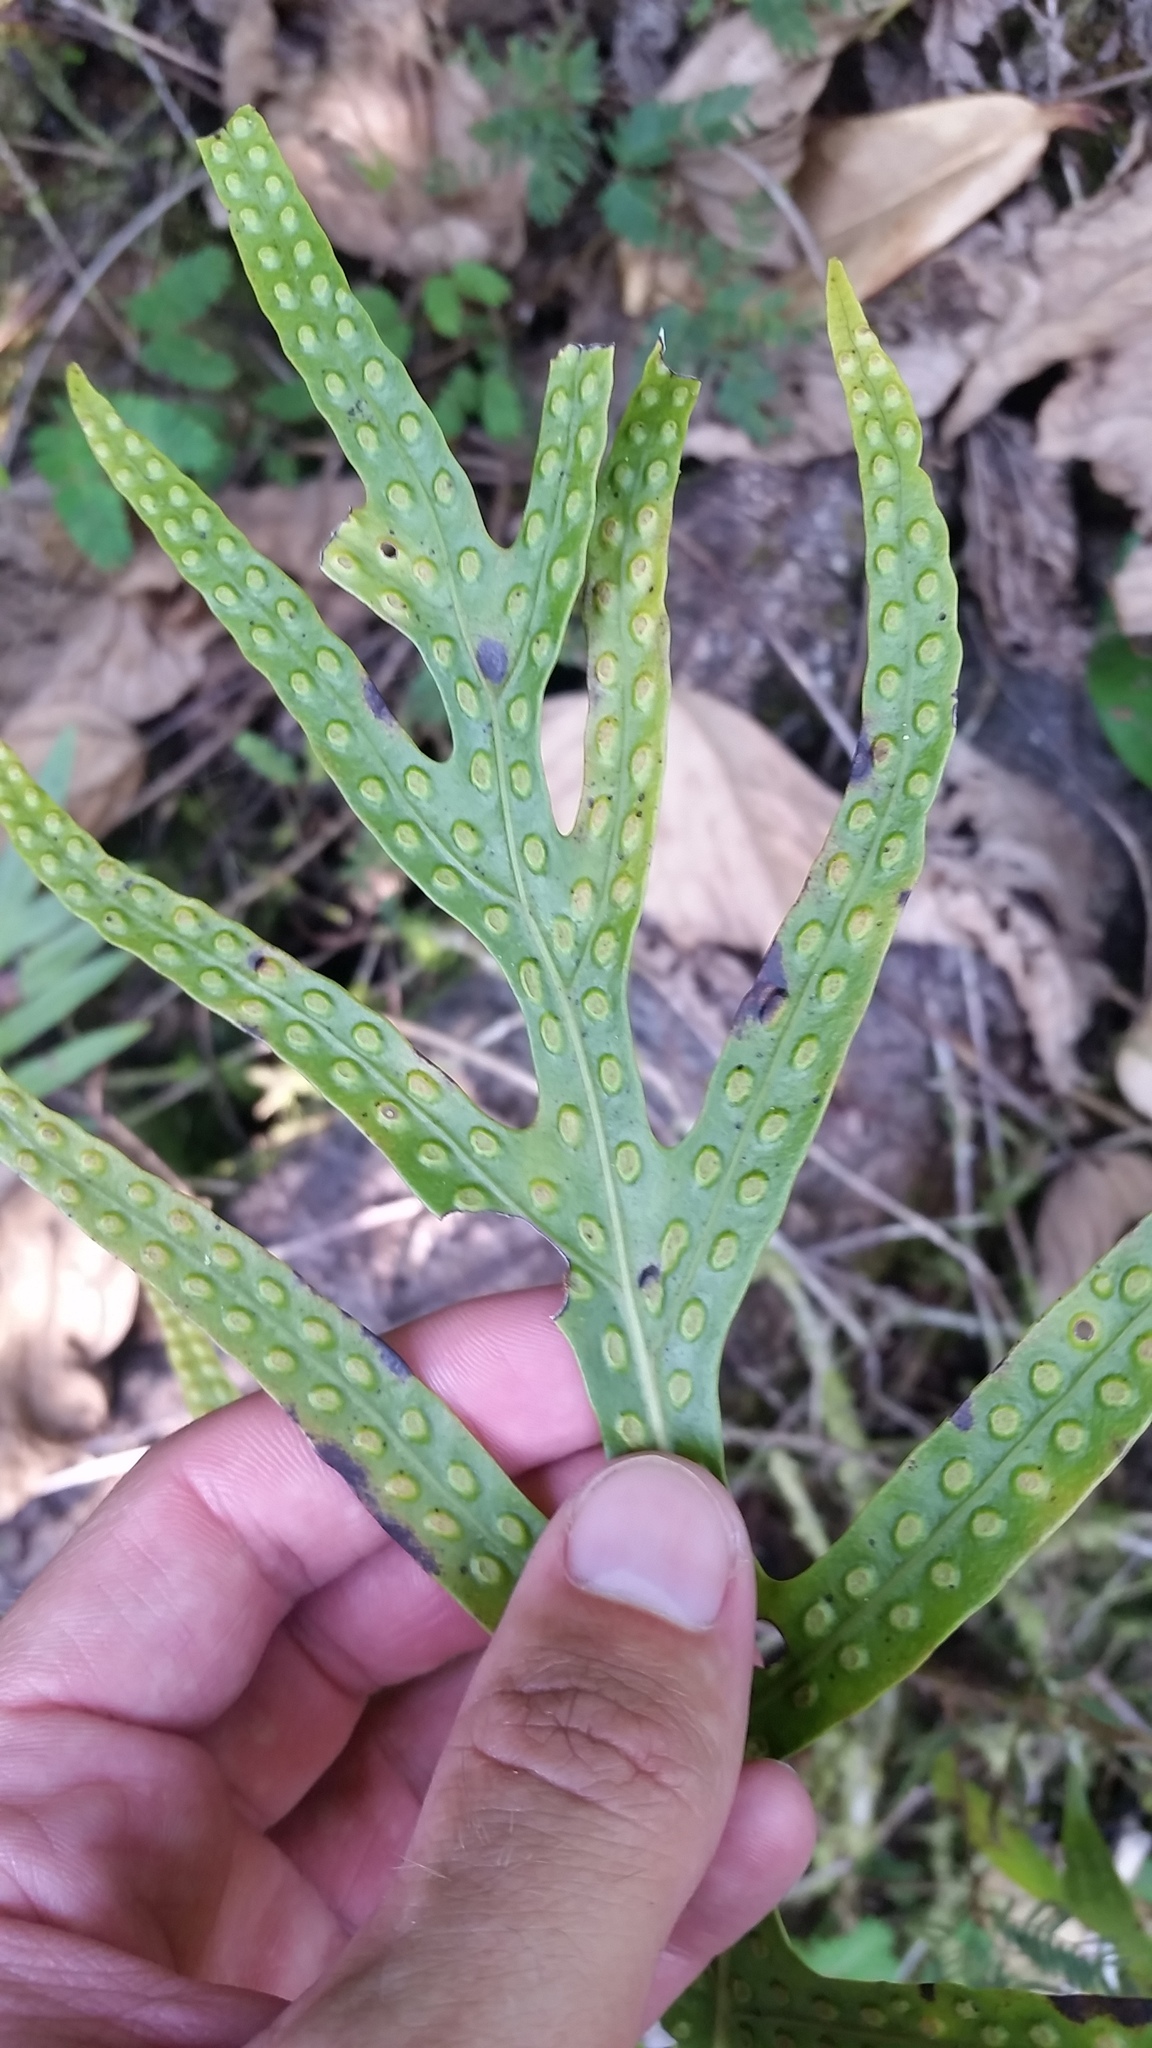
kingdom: Plantae
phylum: Tracheophyta
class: Polypodiopsida
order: Polypodiales
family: Polypodiaceae
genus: Microsorum
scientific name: Microsorum grossum
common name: Musk fern
